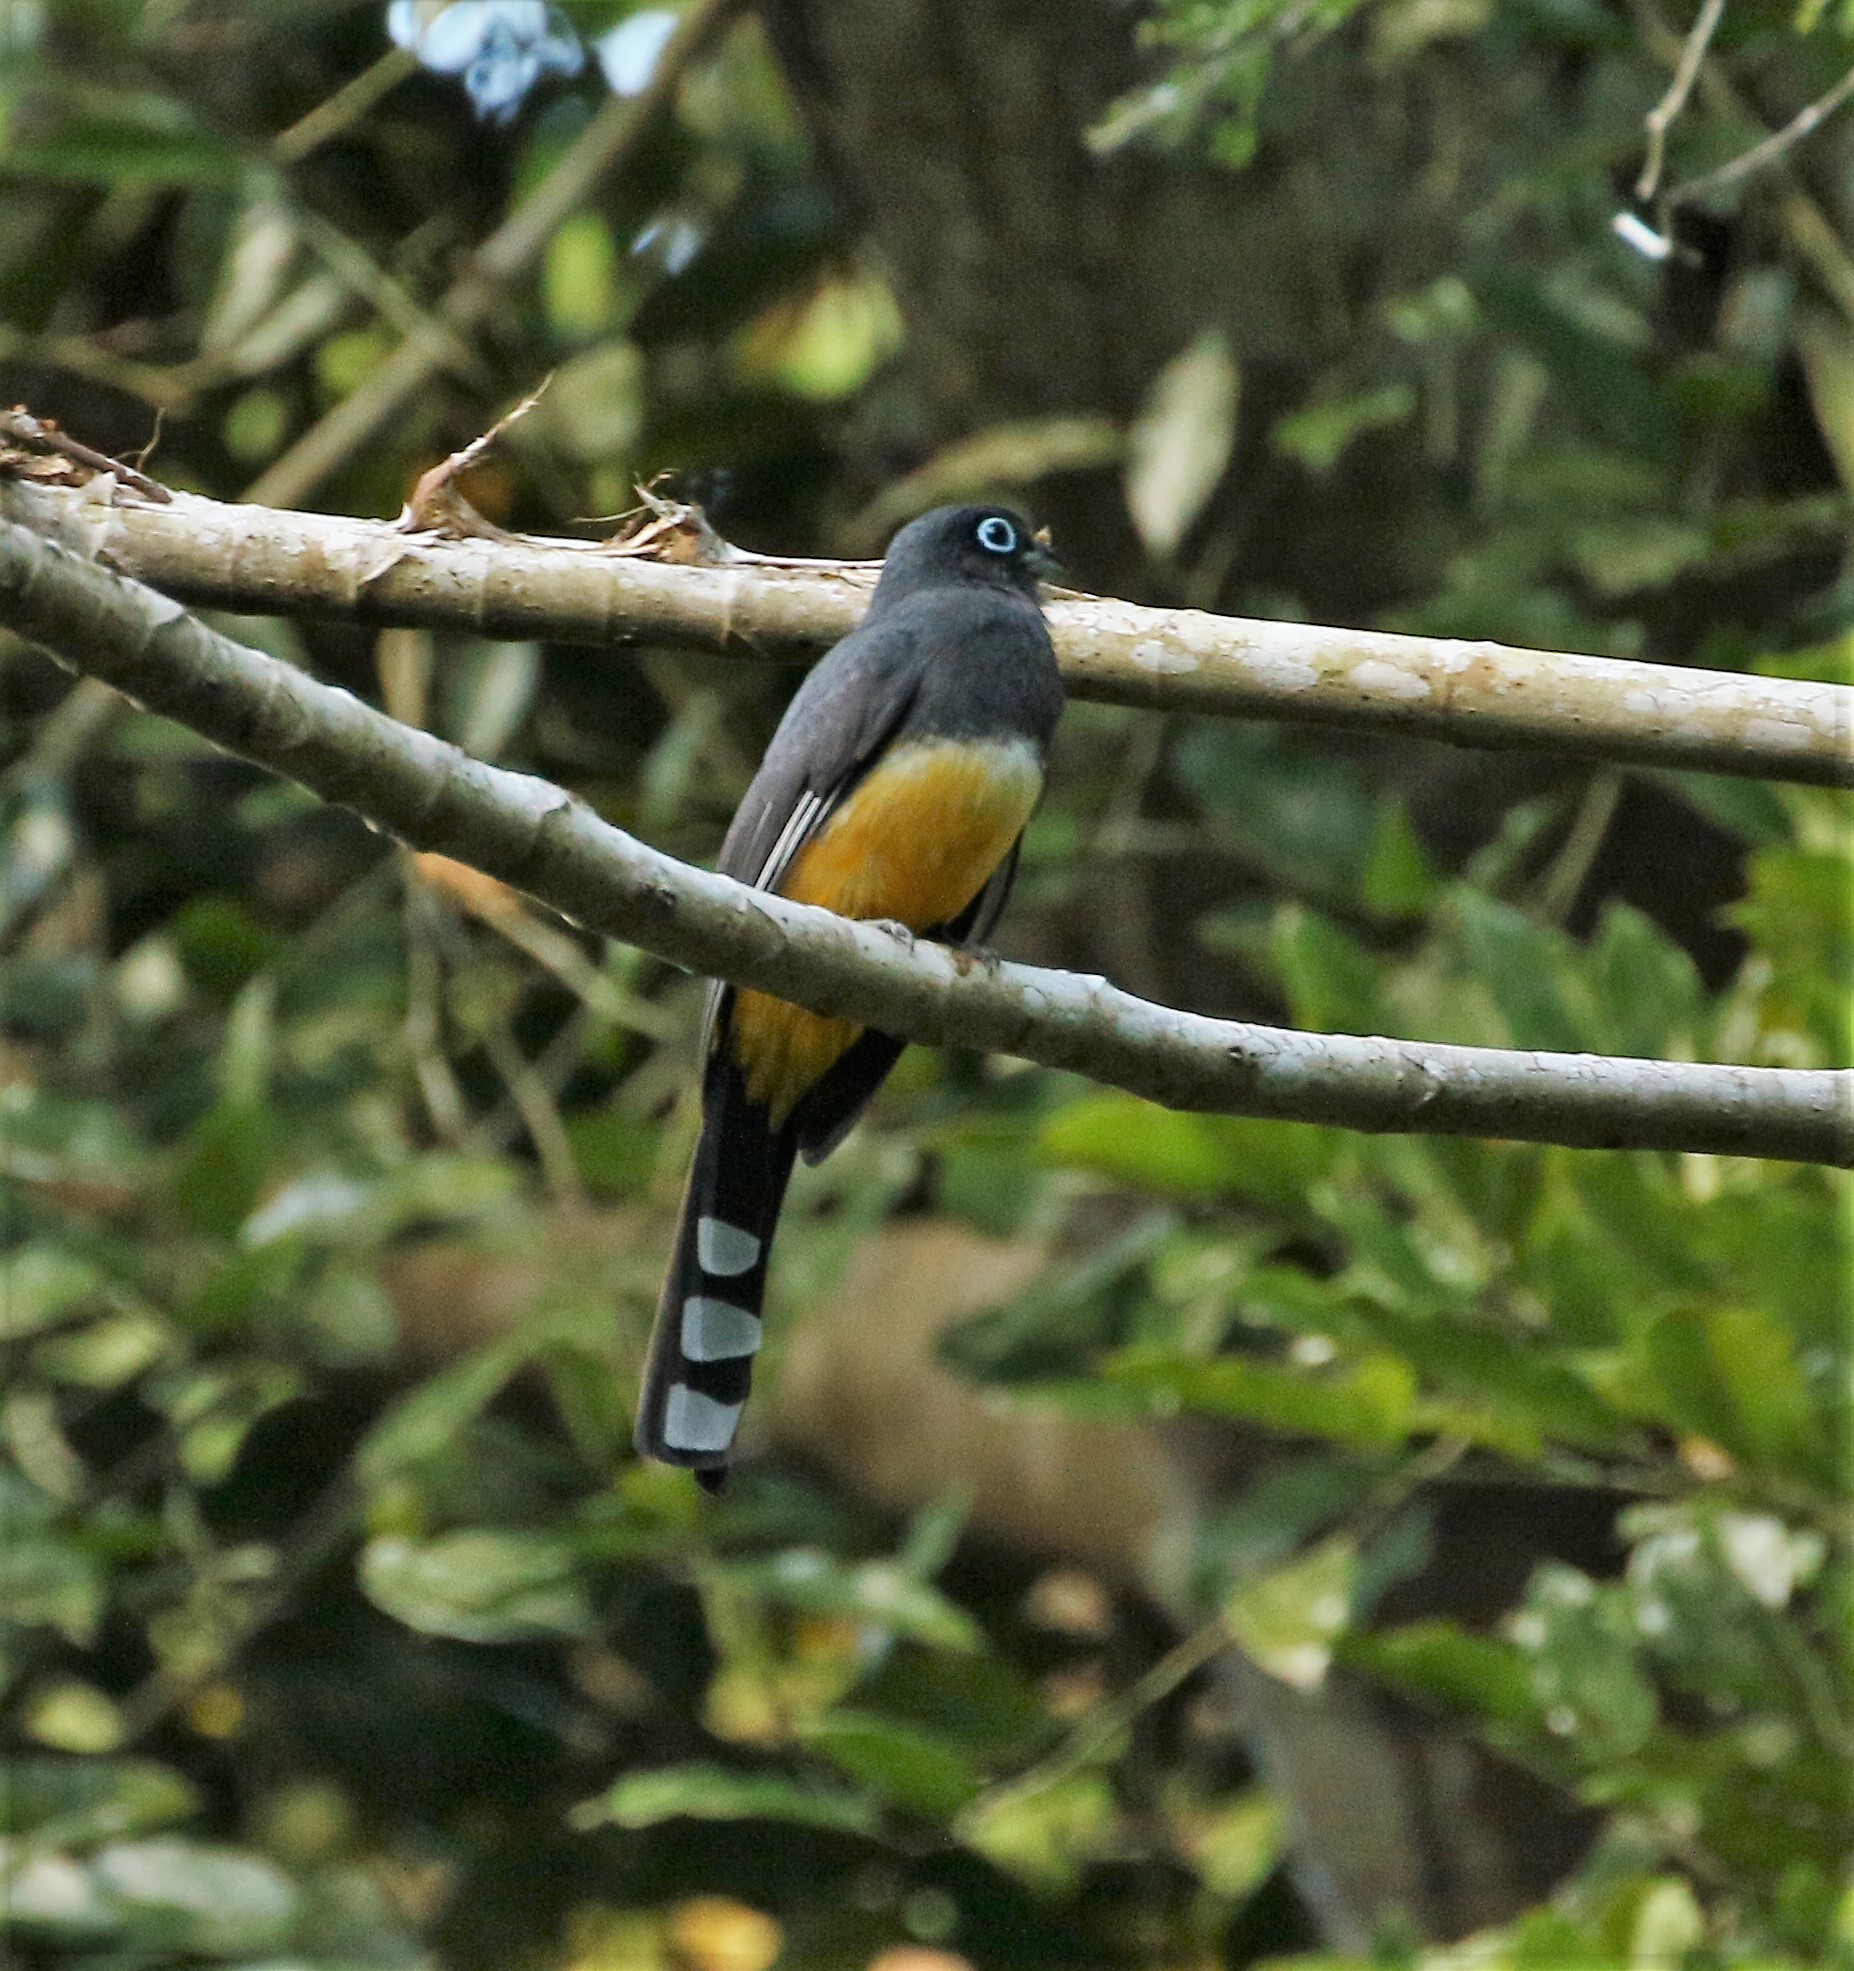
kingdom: Animalia
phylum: Chordata
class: Aves
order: Trogoniformes
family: Trogonidae
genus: Trogon
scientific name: Trogon melanocephalus
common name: Black-headed trogon
